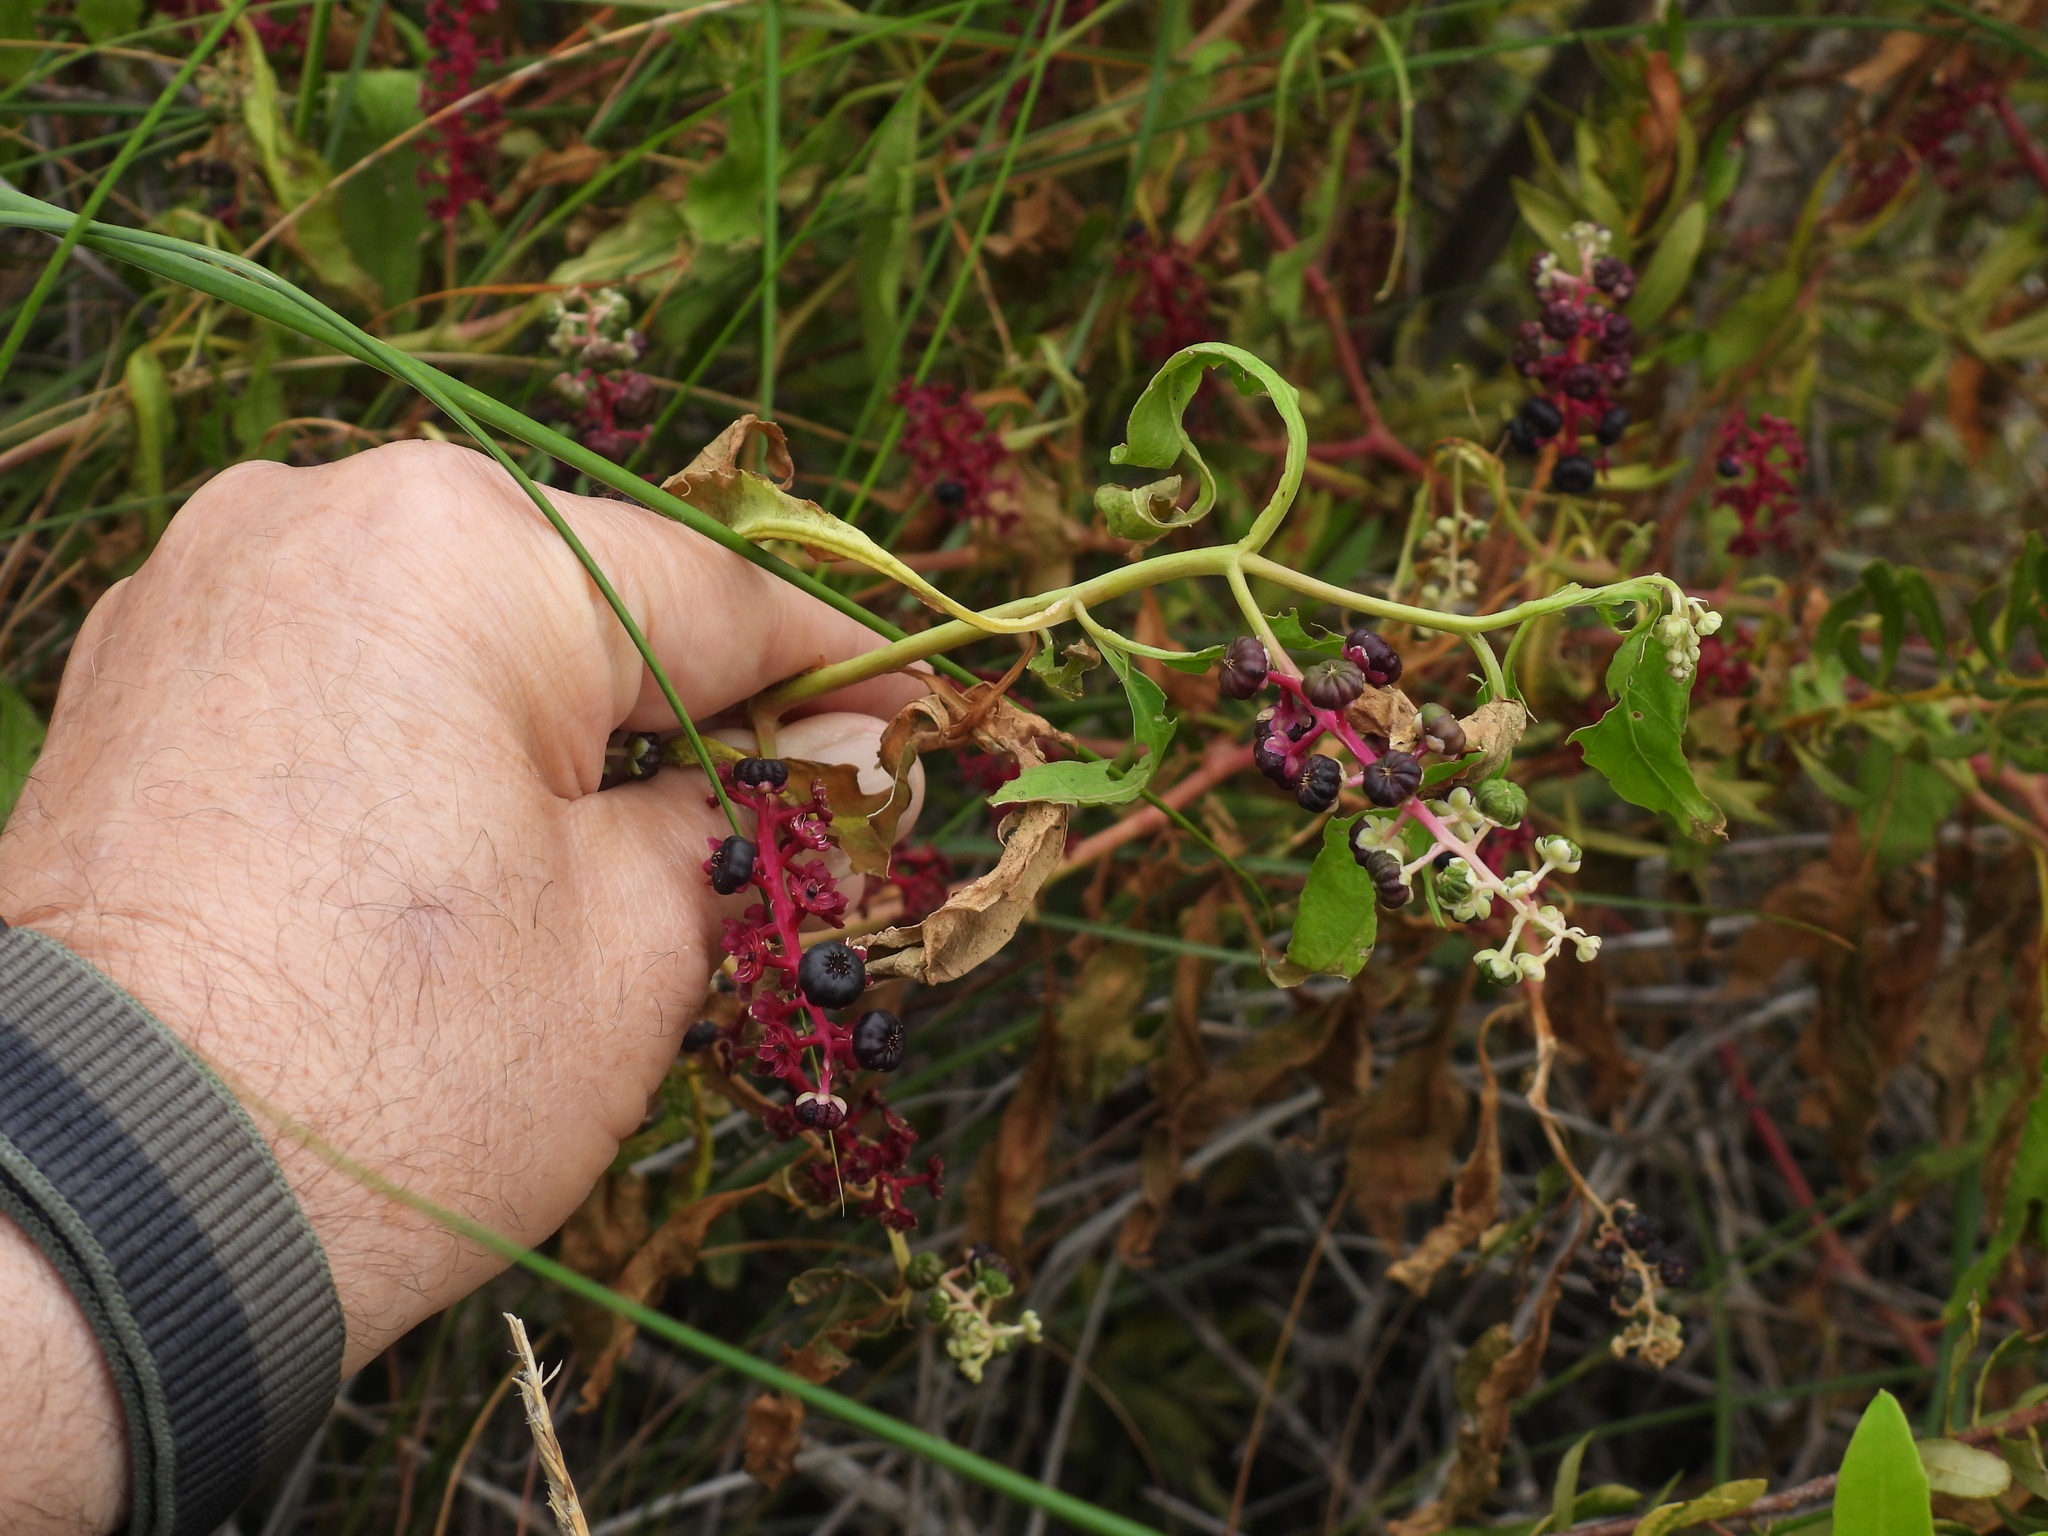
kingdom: Plantae
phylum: Tracheophyta
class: Magnoliopsida
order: Caryophyllales
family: Phytolaccaceae
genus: Phytolacca
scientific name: Phytolacca americana
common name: American pokeweed
